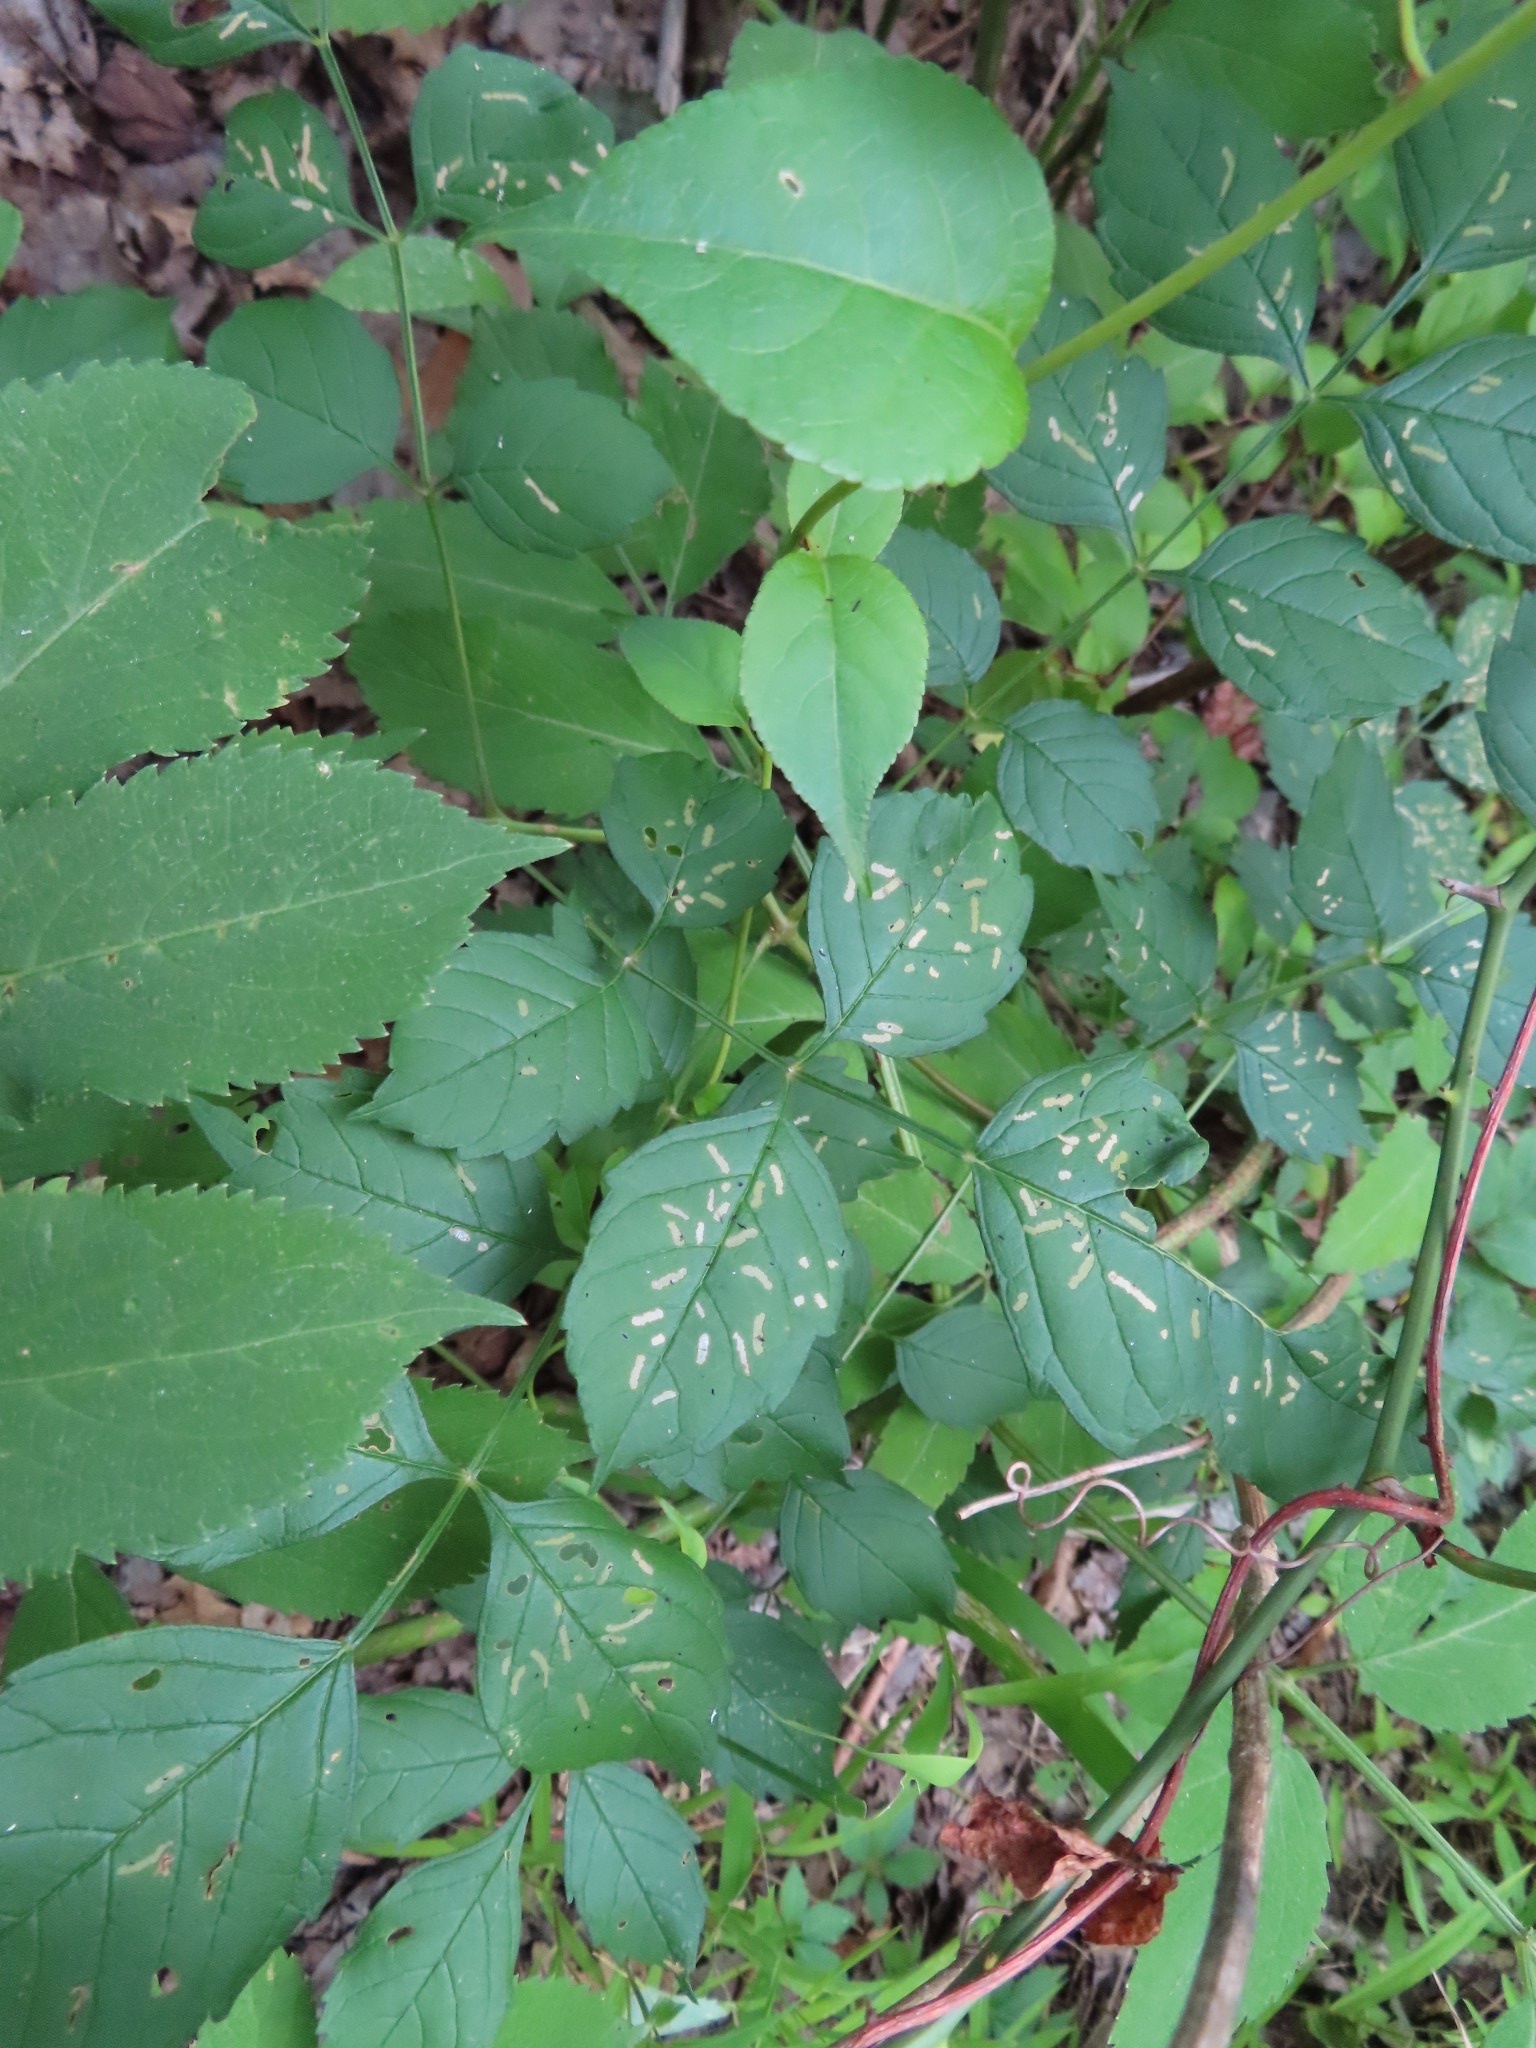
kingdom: Animalia
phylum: Arthropoda
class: Insecta
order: Coleoptera
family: Chrysomelidae
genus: Octotoma
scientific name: Octotoma plicatula
